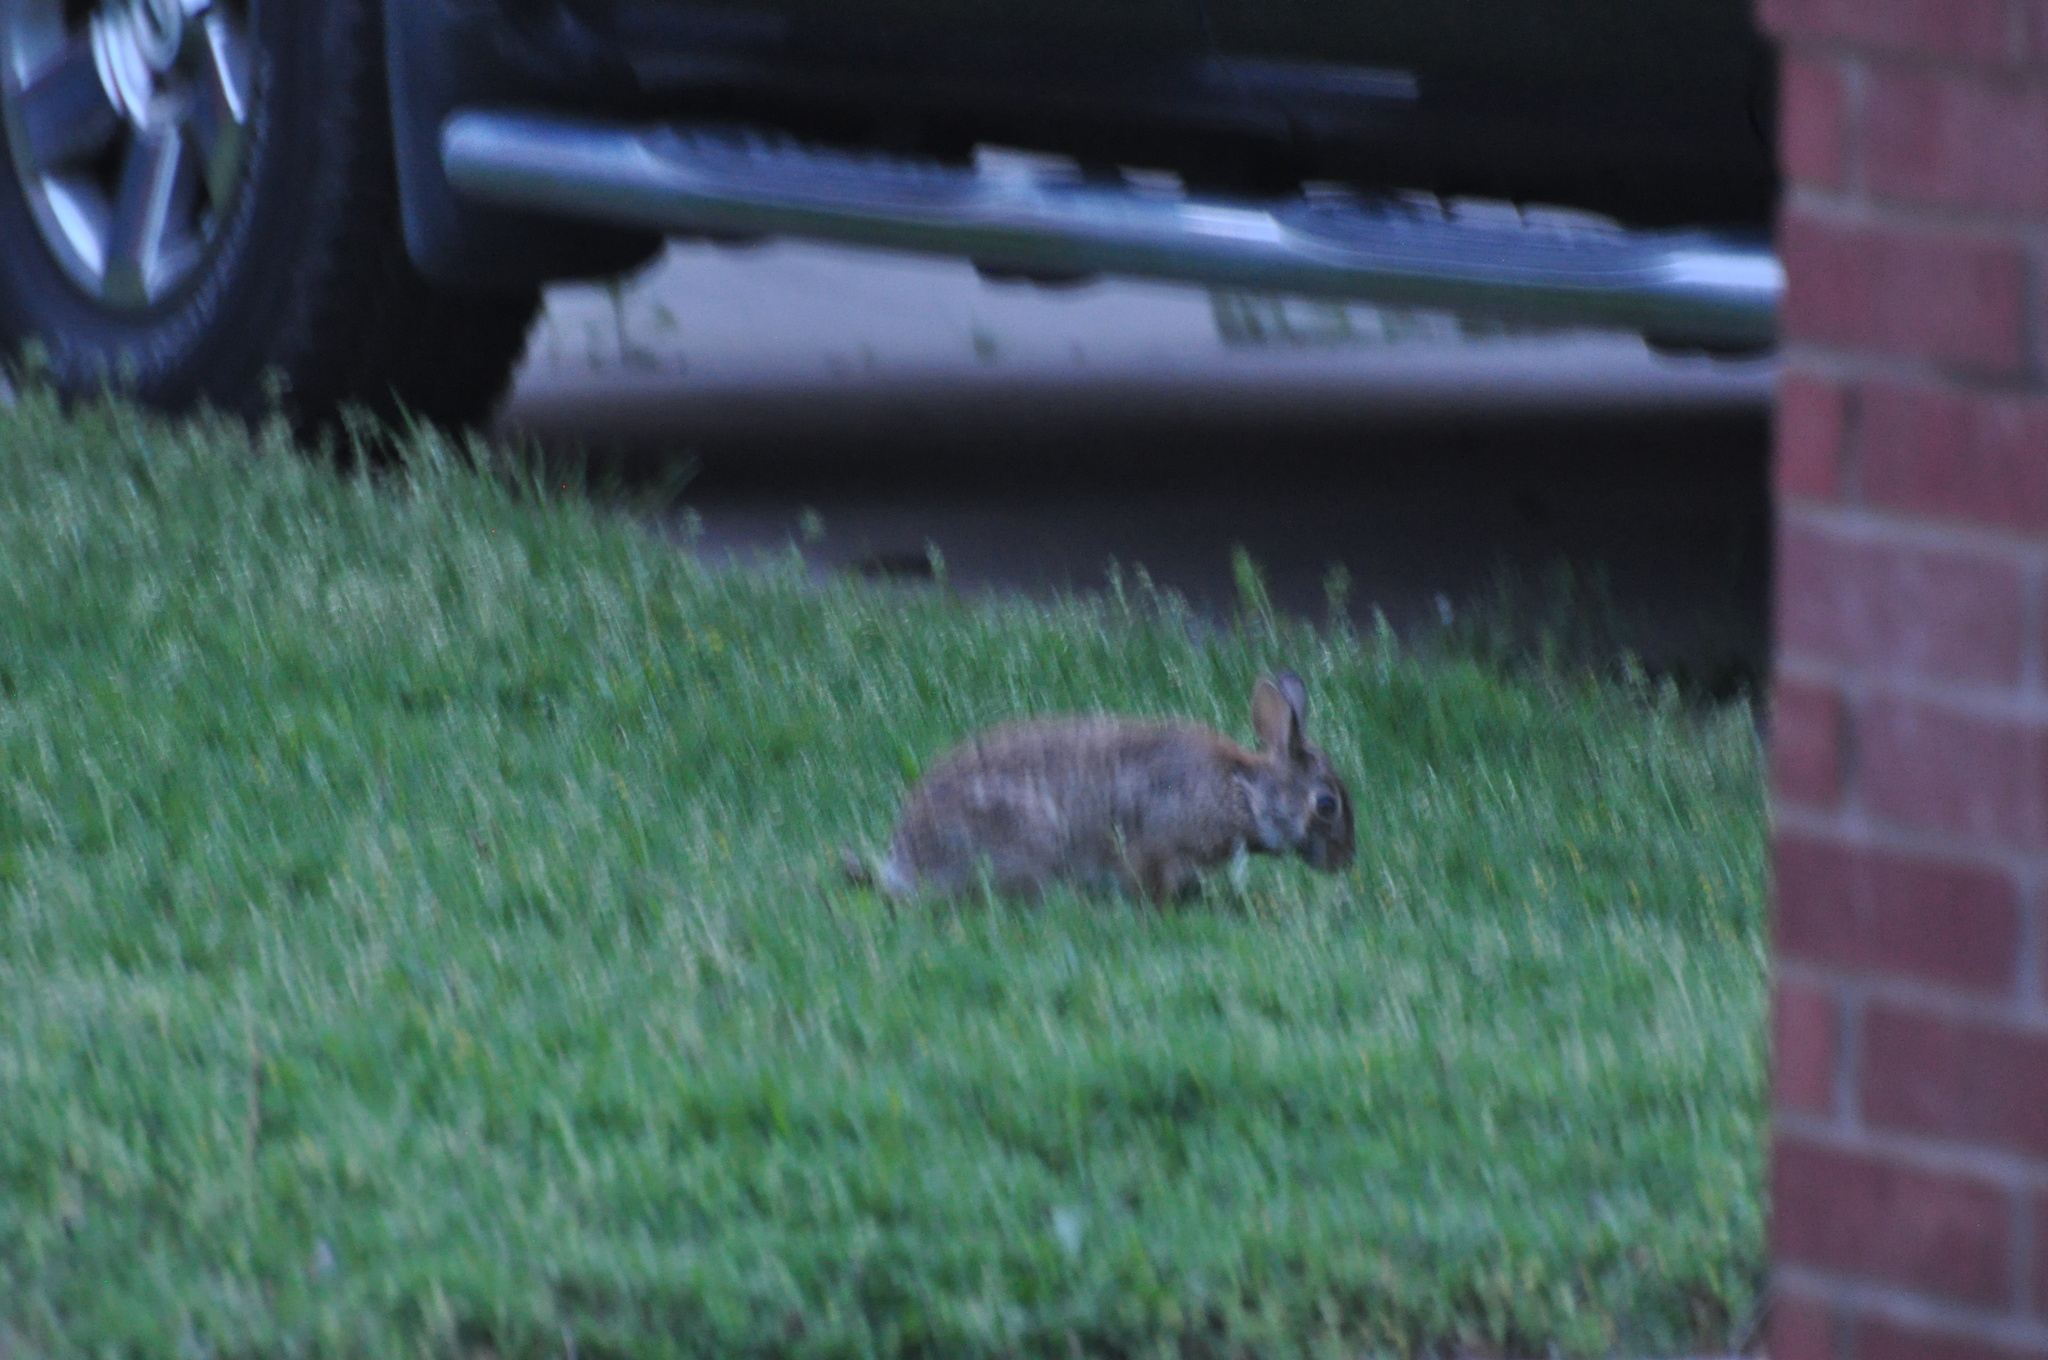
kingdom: Animalia
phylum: Chordata
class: Mammalia
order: Lagomorpha
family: Leporidae
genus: Sylvilagus
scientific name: Sylvilagus floridanus
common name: Eastern cottontail
